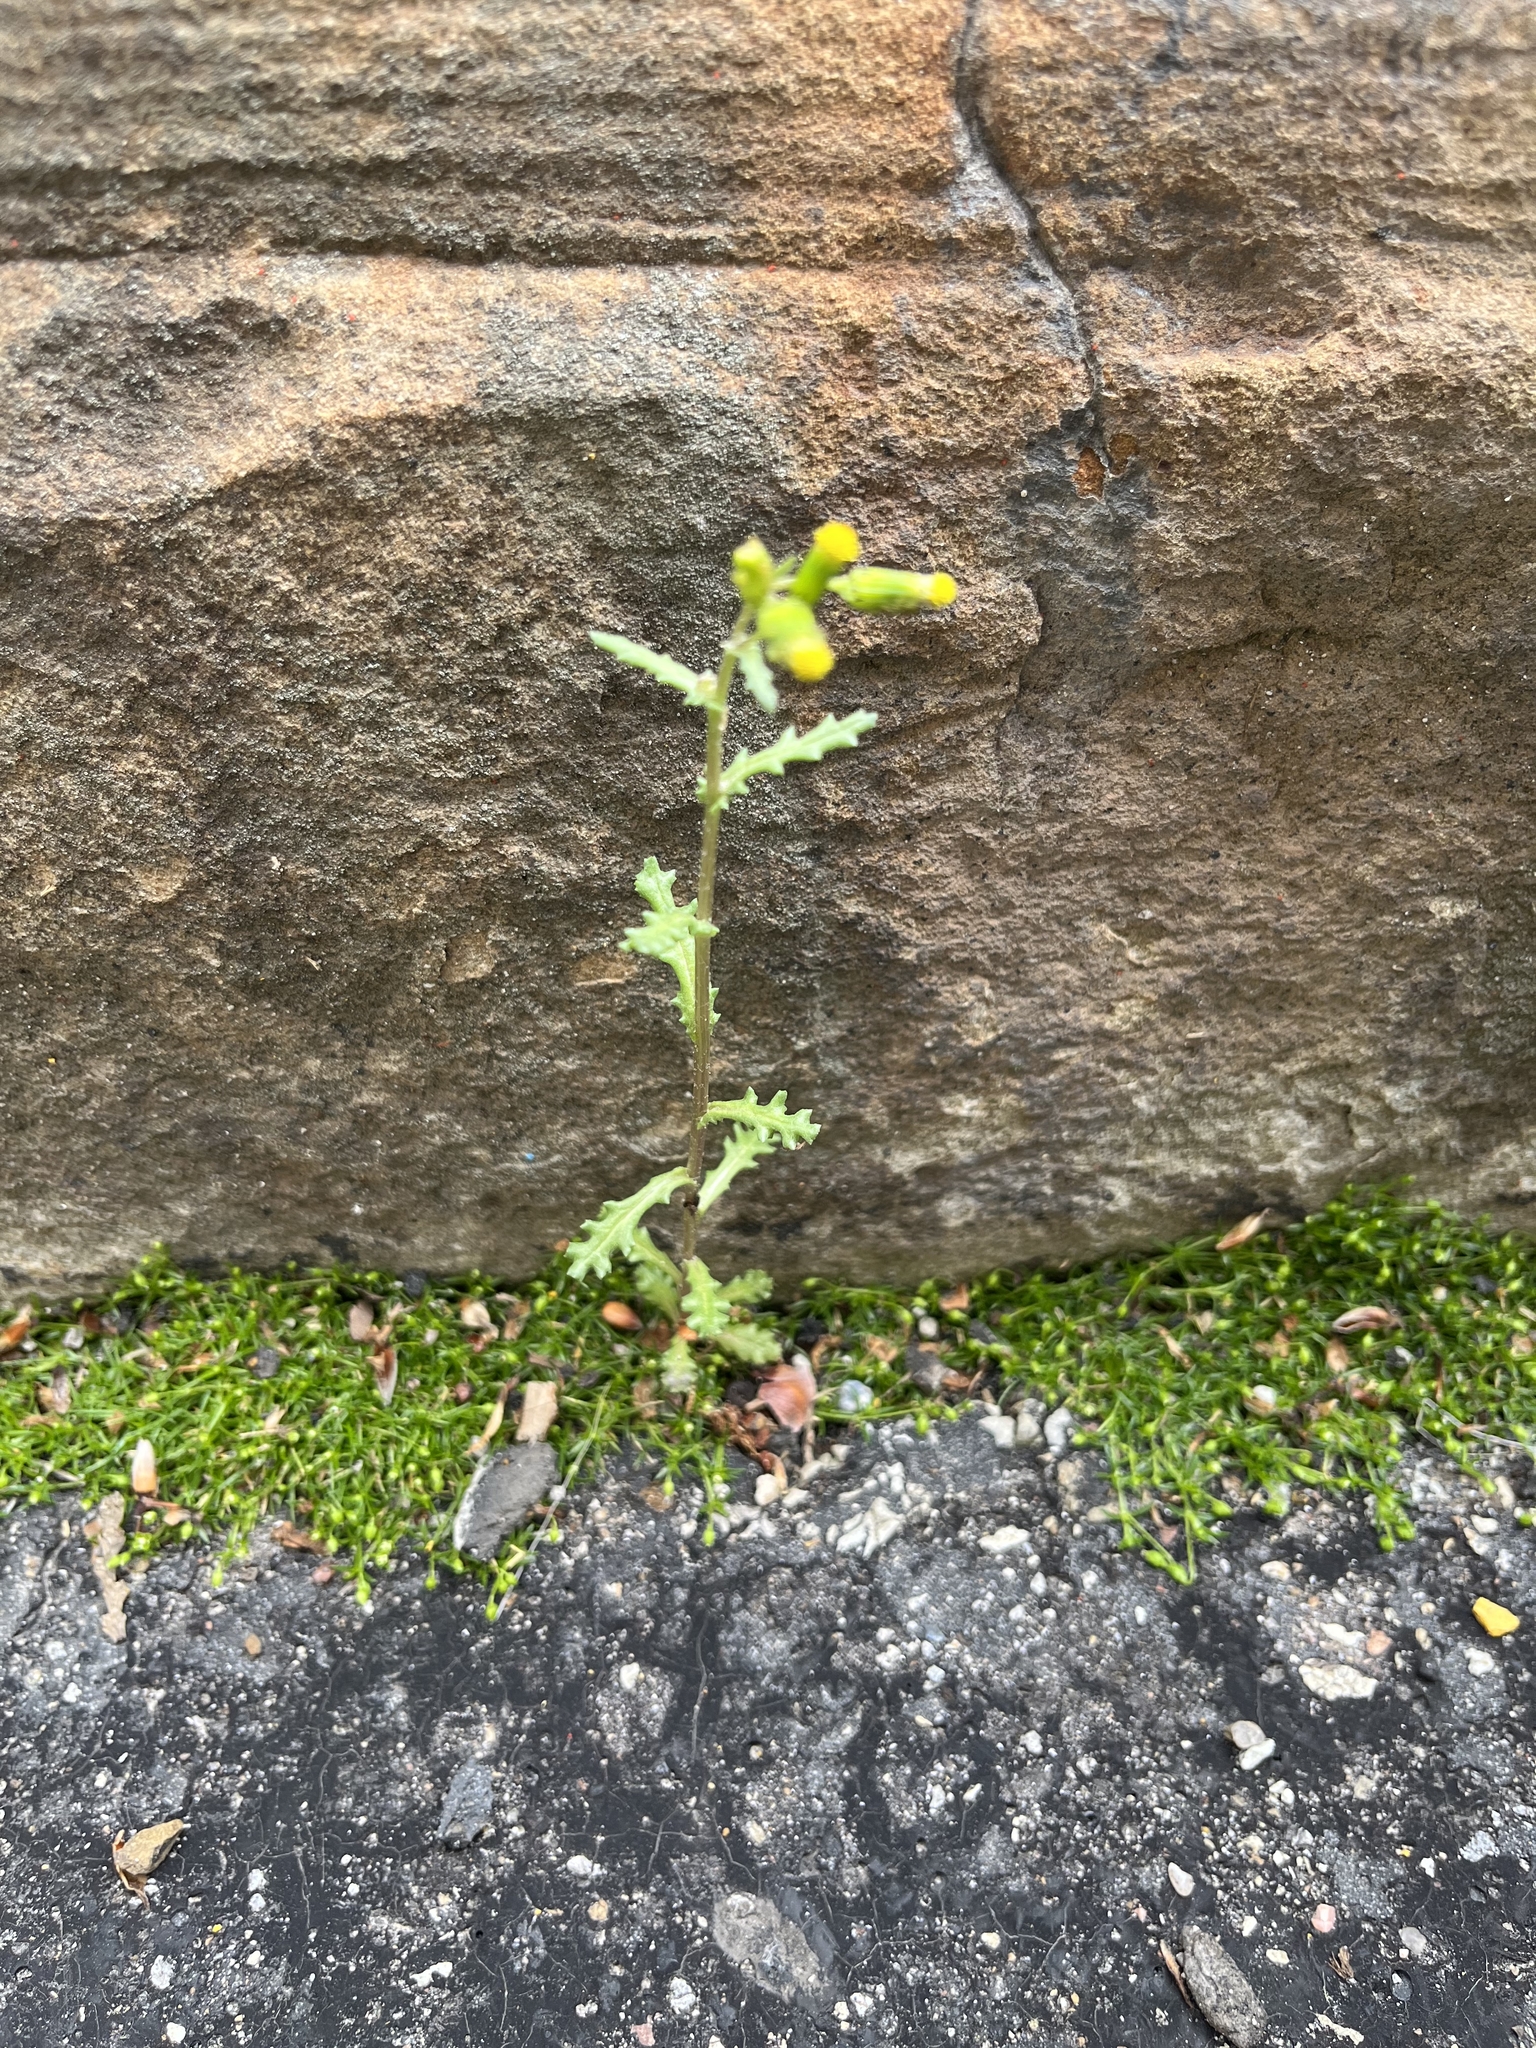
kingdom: Plantae
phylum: Tracheophyta
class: Magnoliopsida
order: Asterales
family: Asteraceae
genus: Senecio
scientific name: Senecio vulgaris
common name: Old-man-in-the-spring
